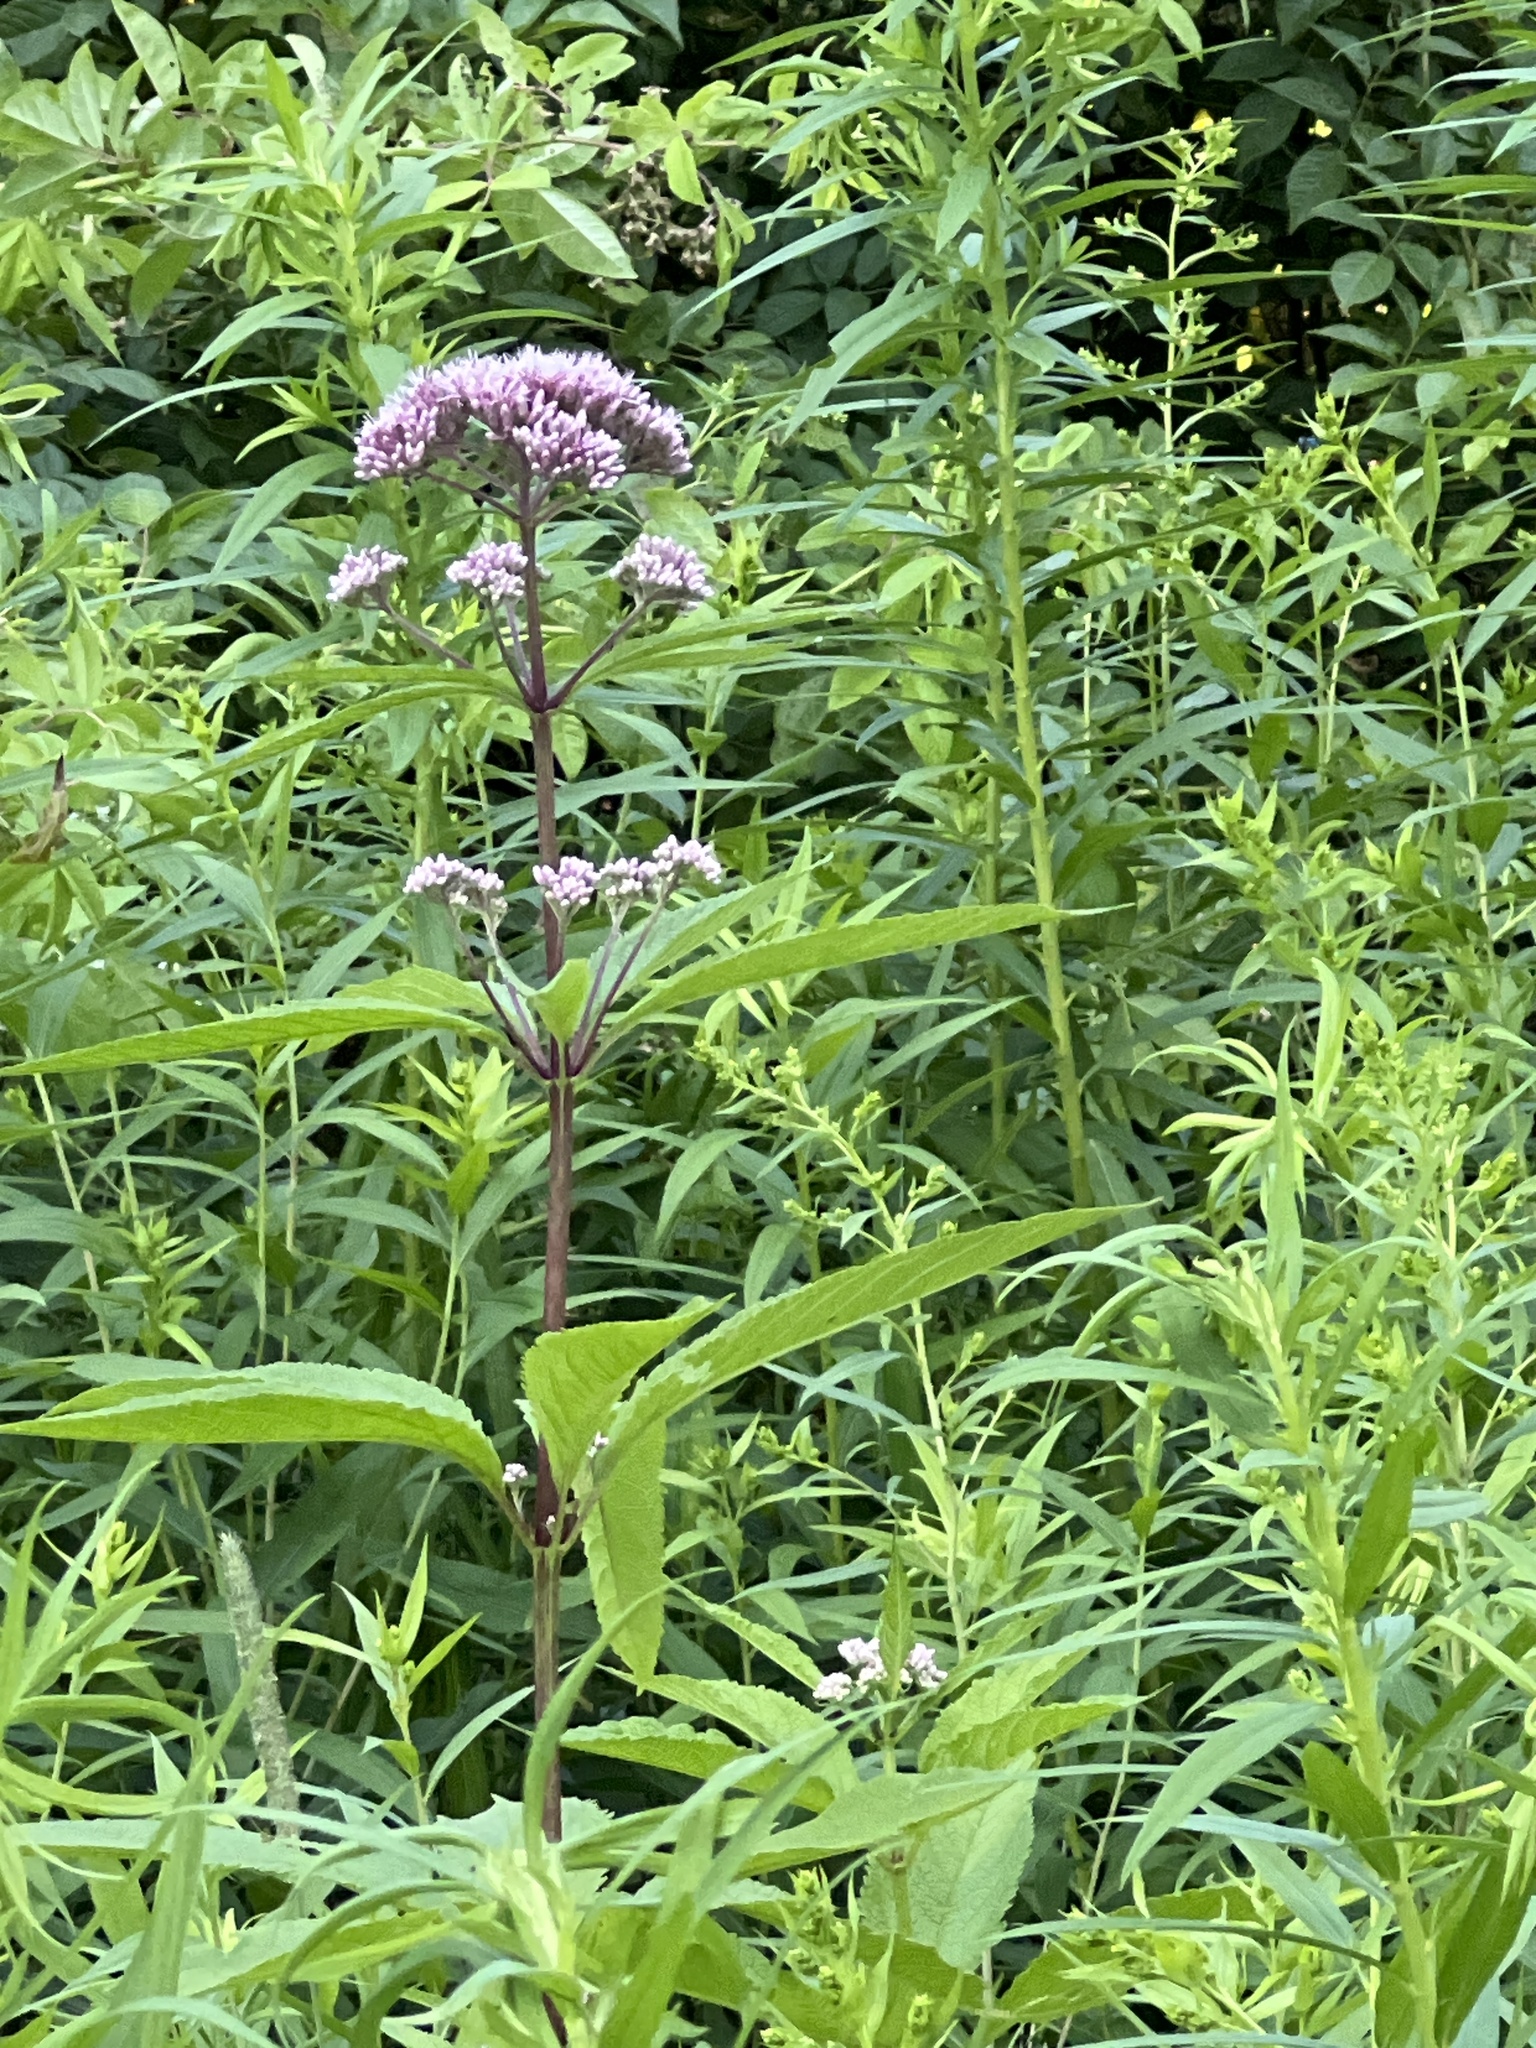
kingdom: Plantae
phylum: Tracheophyta
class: Magnoliopsida
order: Asterales
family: Asteraceae
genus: Eutrochium
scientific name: Eutrochium maculatum
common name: Spotted joe pye weed
